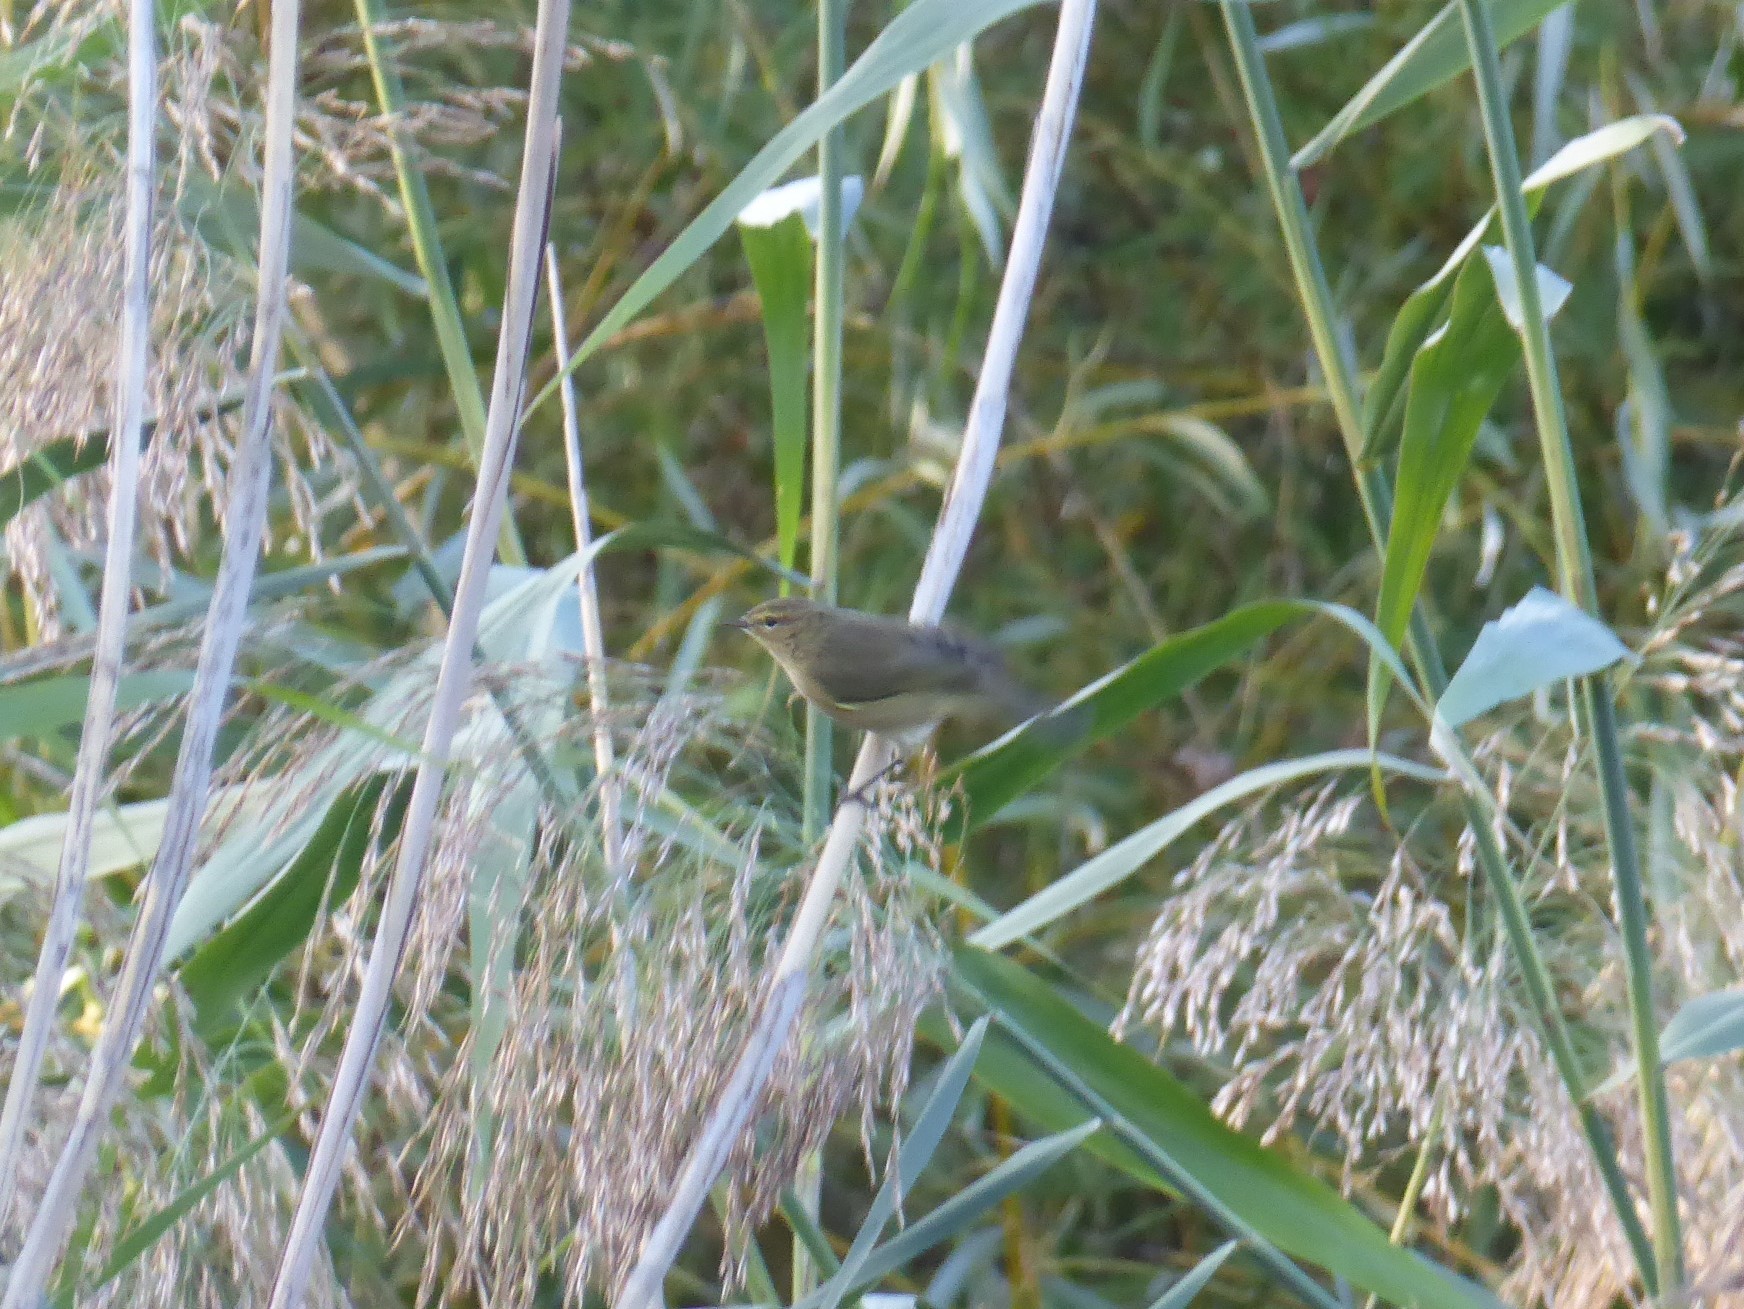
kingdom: Animalia
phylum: Chordata
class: Aves
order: Passeriformes
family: Phylloscopidae
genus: Phylloscopus
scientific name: Phylloscopus collybita
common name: Common chiffchaff
